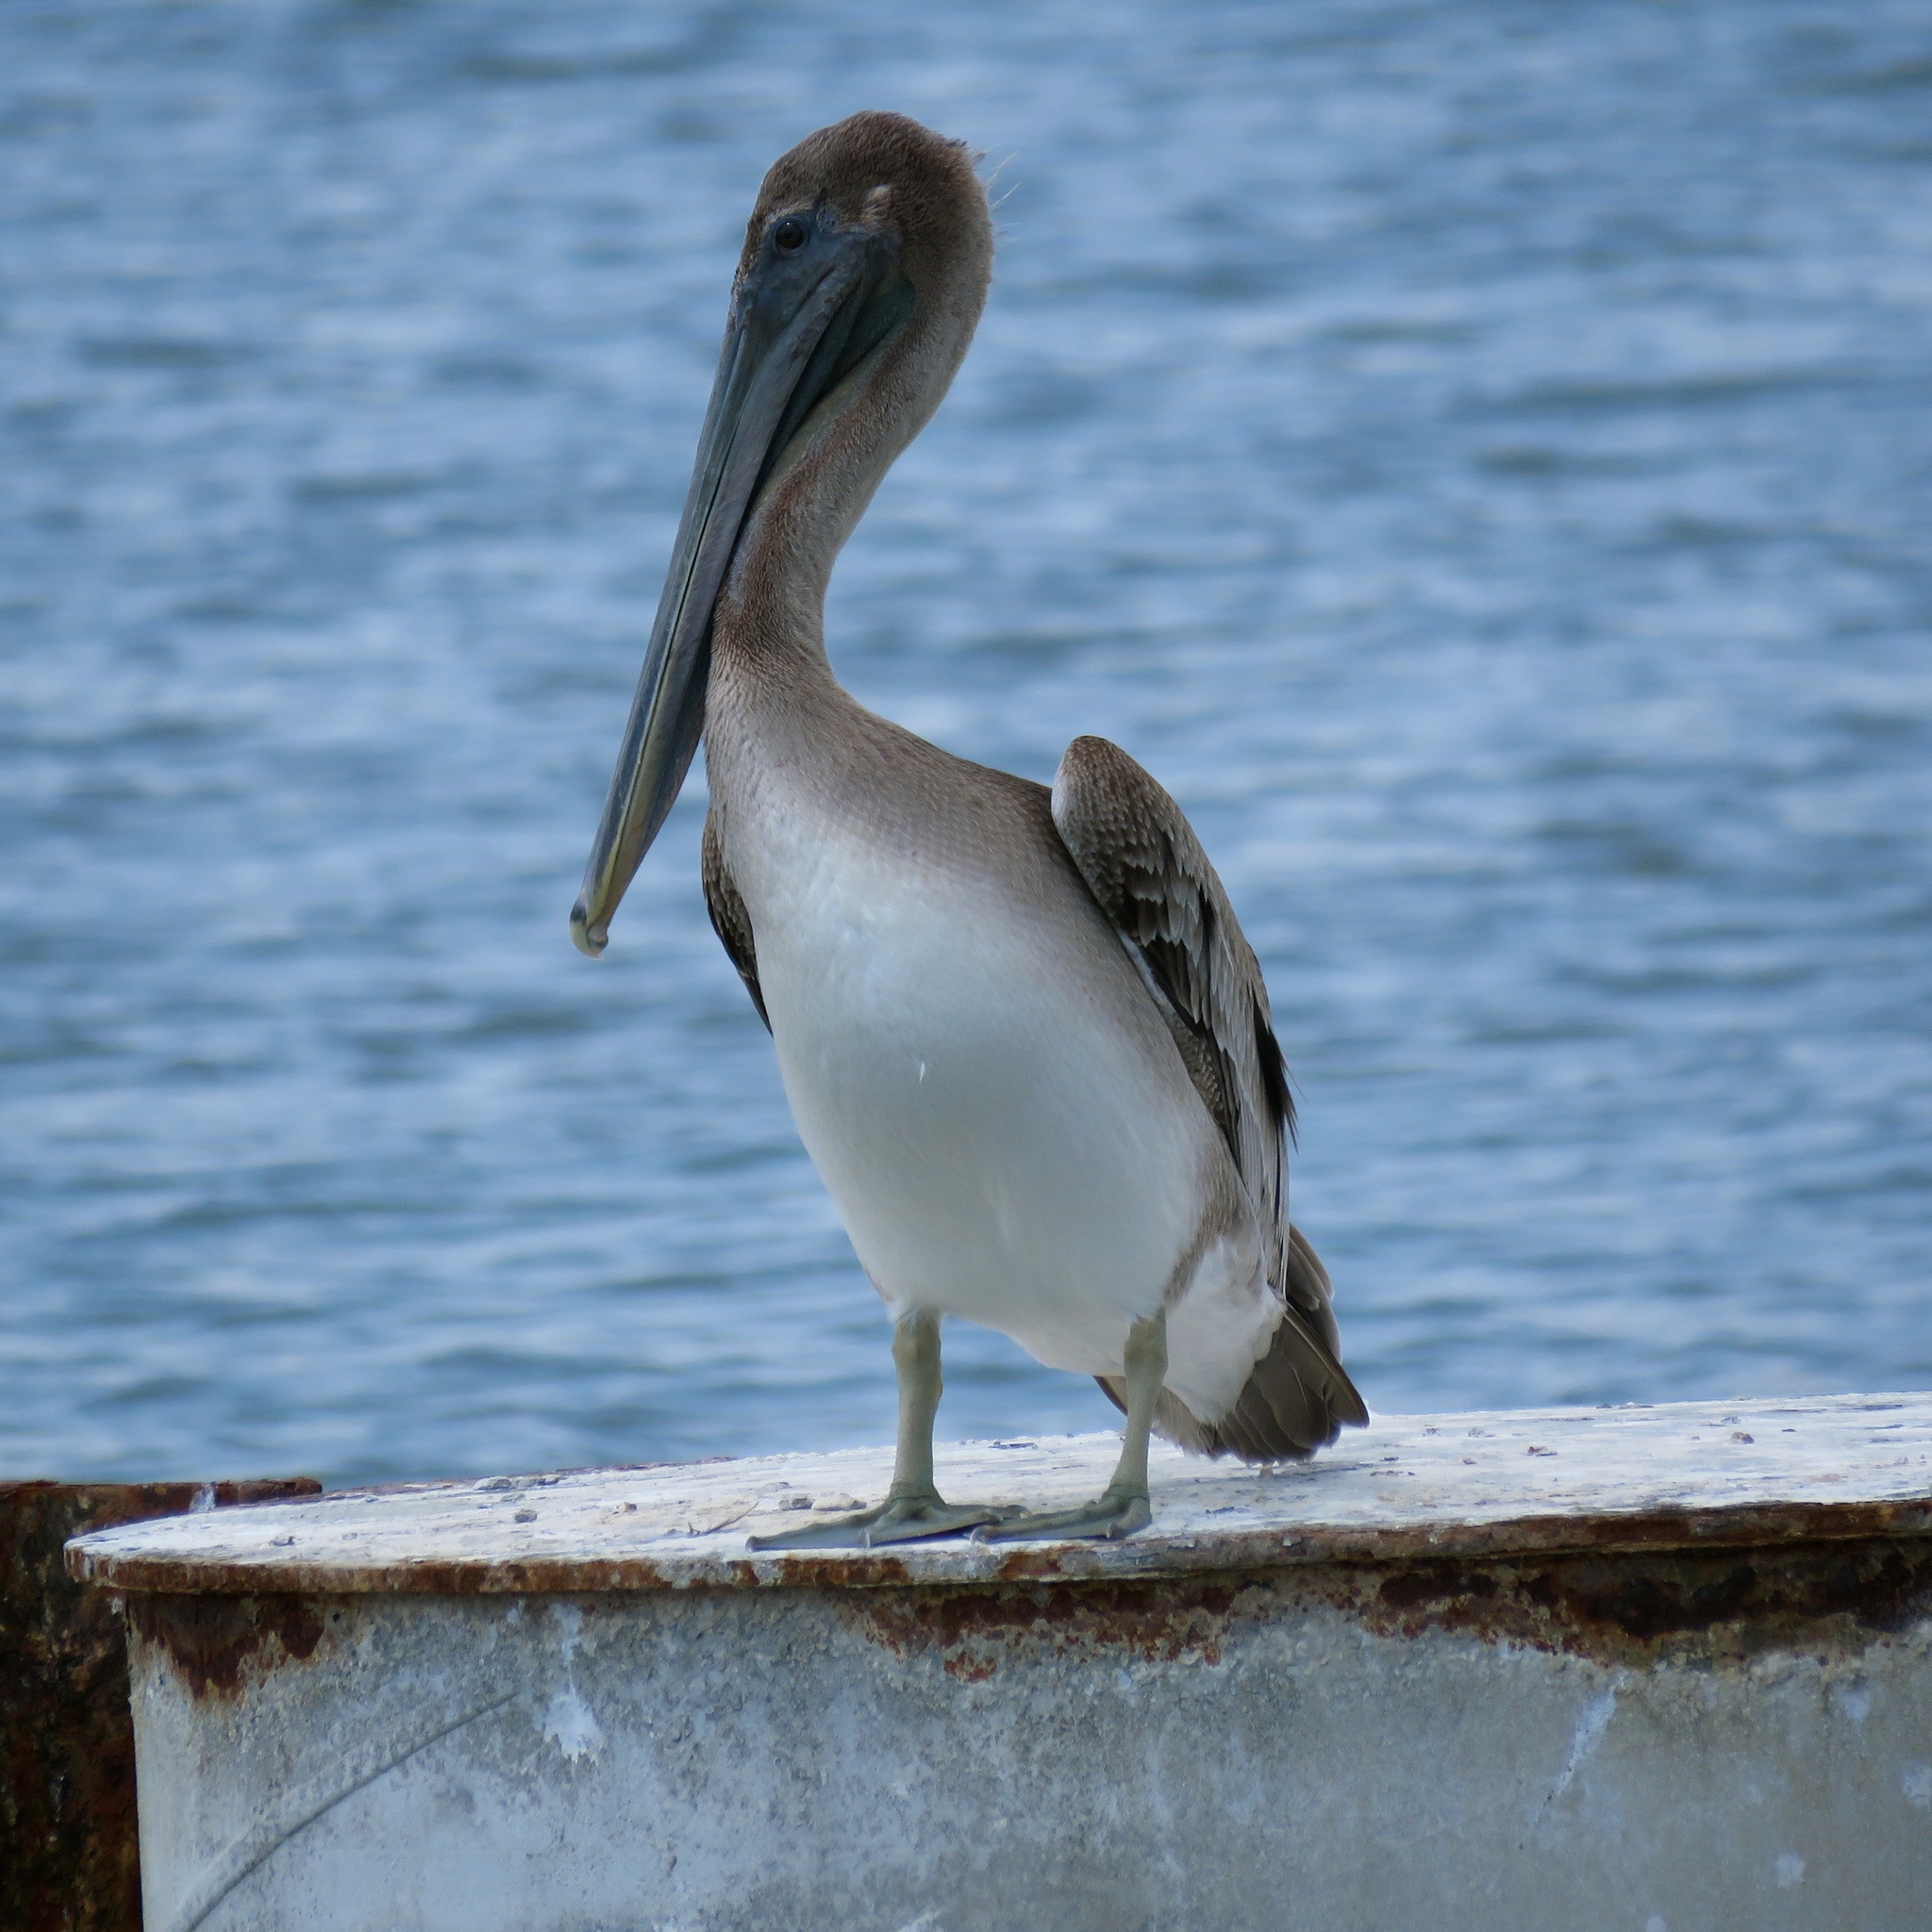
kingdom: Animalia
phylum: Chordata
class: Aves
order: Pelecaniformes
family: Pelecanidae
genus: Pelecanus
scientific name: Pelecanus occidentalis
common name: Brown pelican
